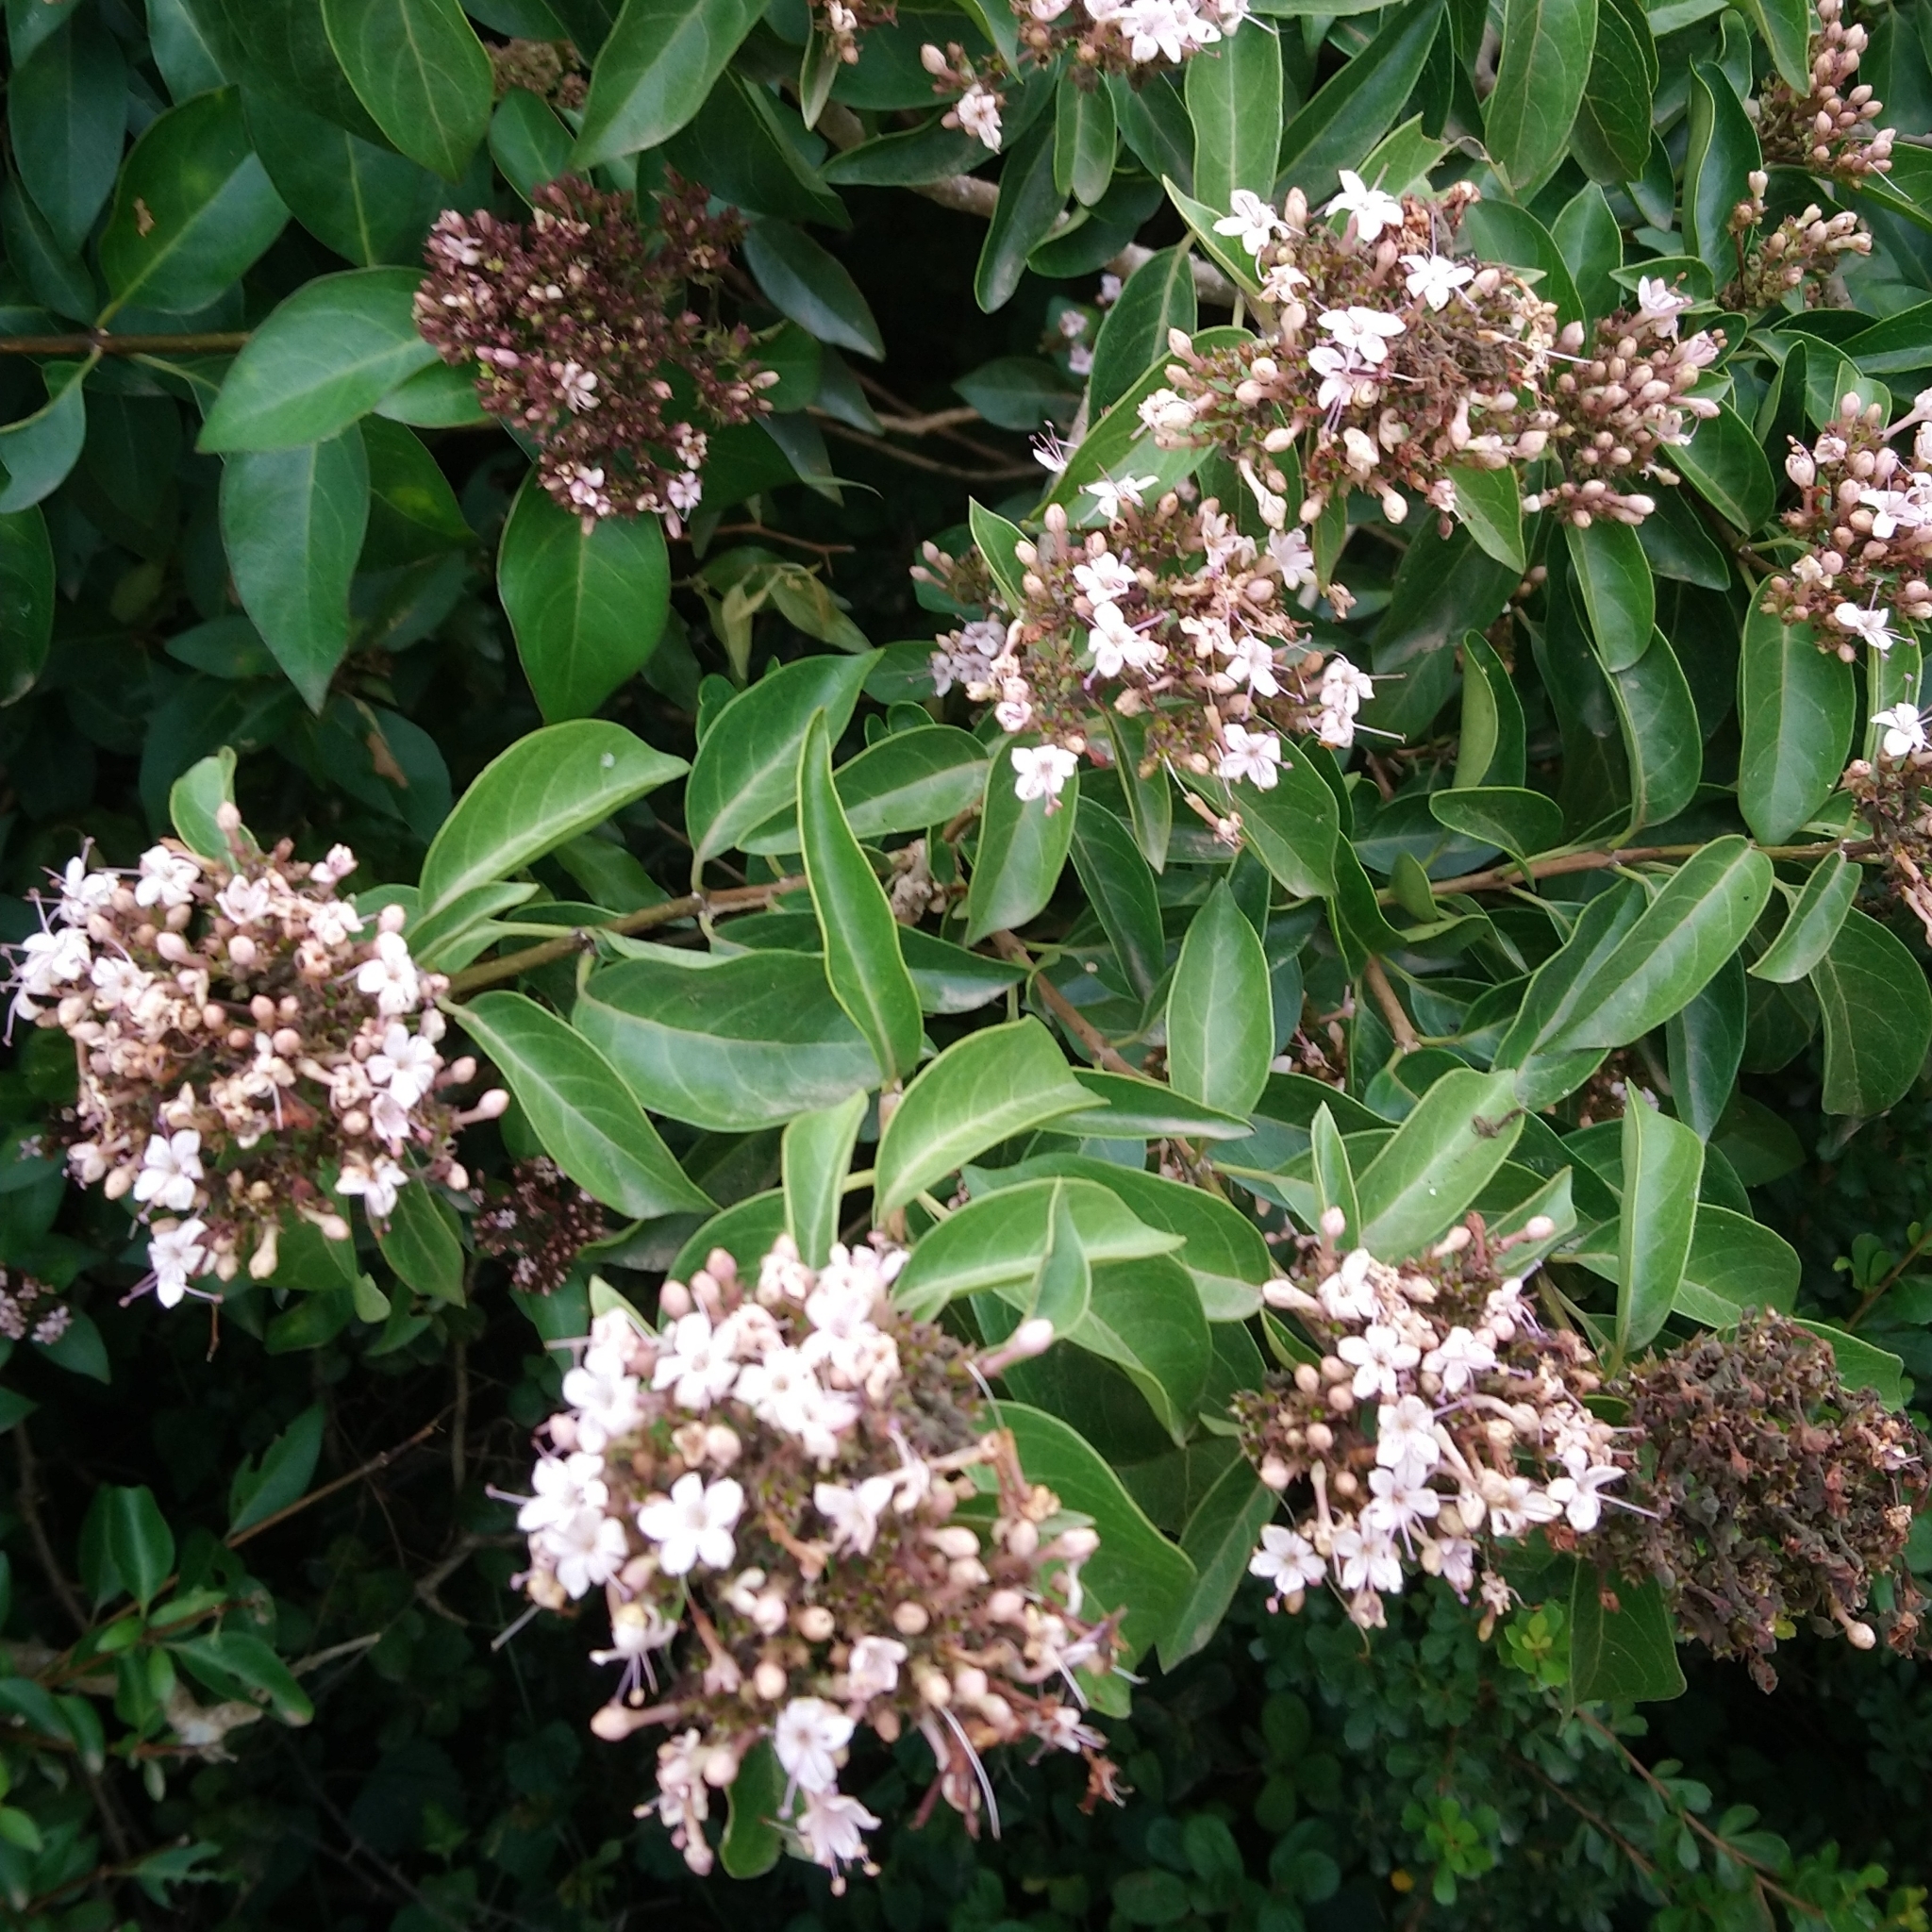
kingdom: Plantae
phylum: Tracheophyta
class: Magnoliopsida
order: Lamiales
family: Lamiaceae
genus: Volkameria
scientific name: Volkameria glabra
